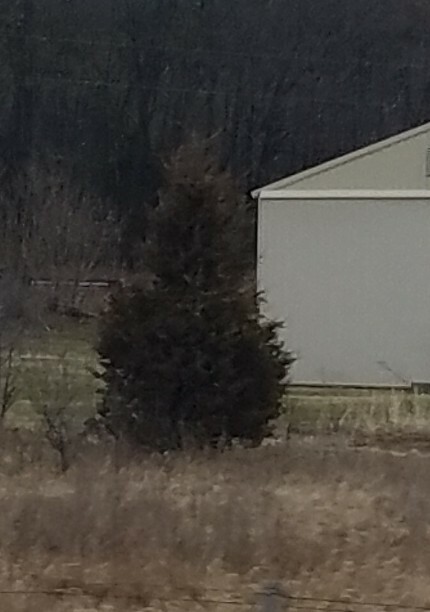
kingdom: Plantae
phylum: Tracheophyta
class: Pinopsida
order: Pinales
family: Cupressaceae
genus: Juniperus
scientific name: Juniperus virginiana
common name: Red juniper
